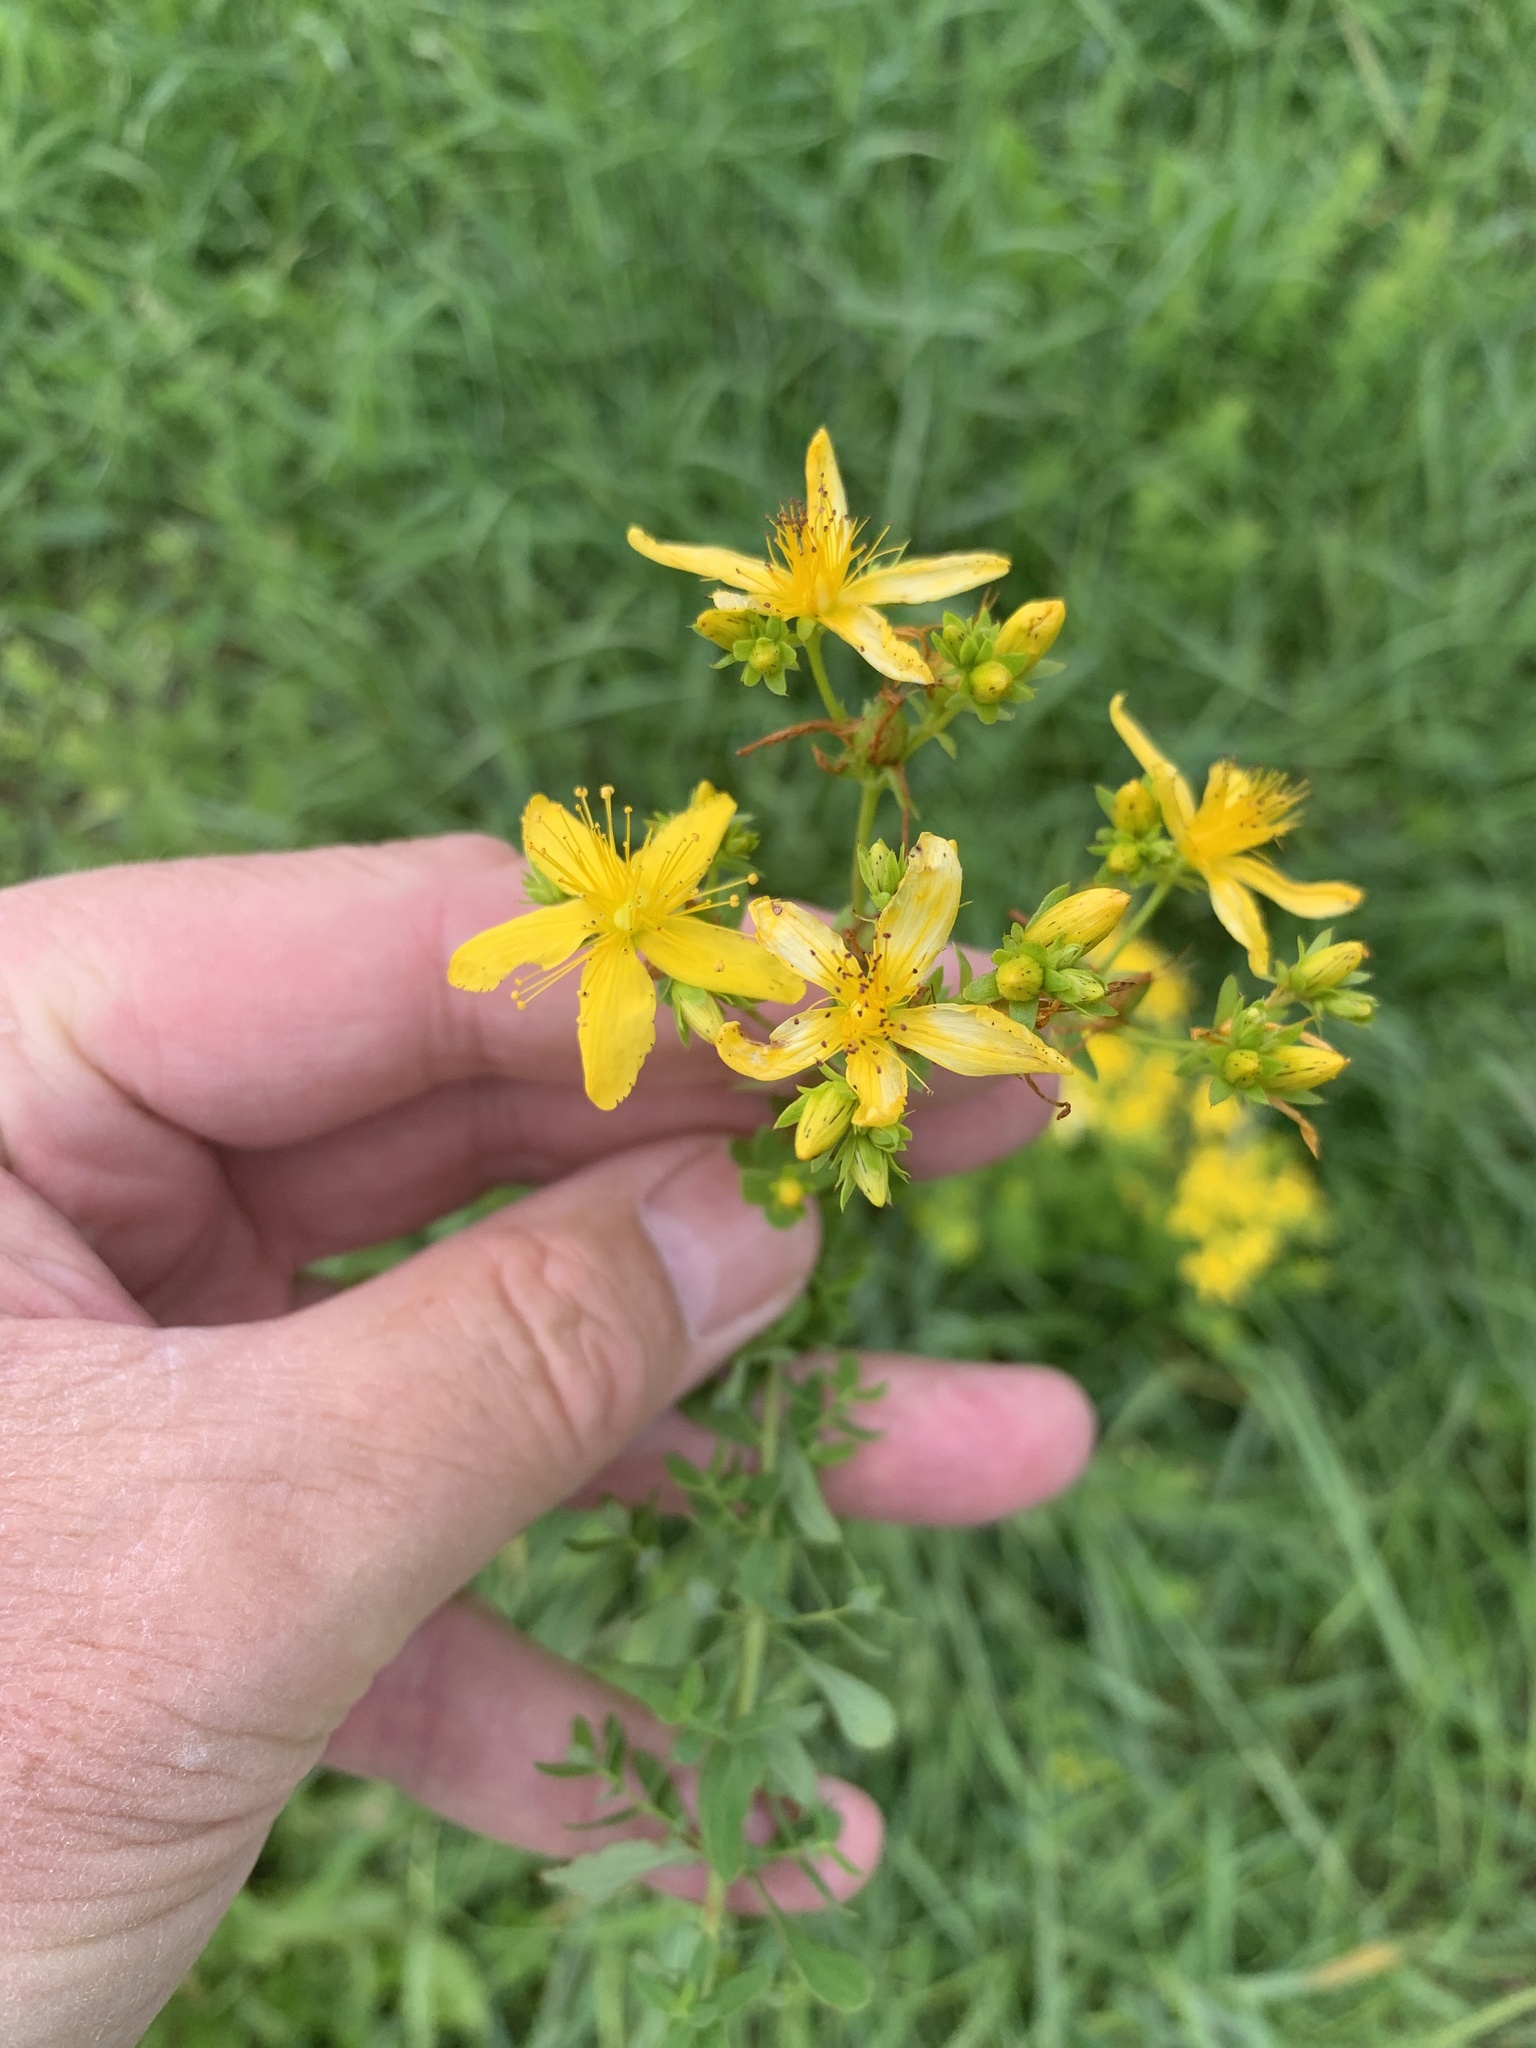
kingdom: Plantae
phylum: Tracheophyta
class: Magnoliopsida
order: Malpighiales
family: Hypericaceae
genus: Hypericum
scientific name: Hypericum perforatum
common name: Common st. johnswort
